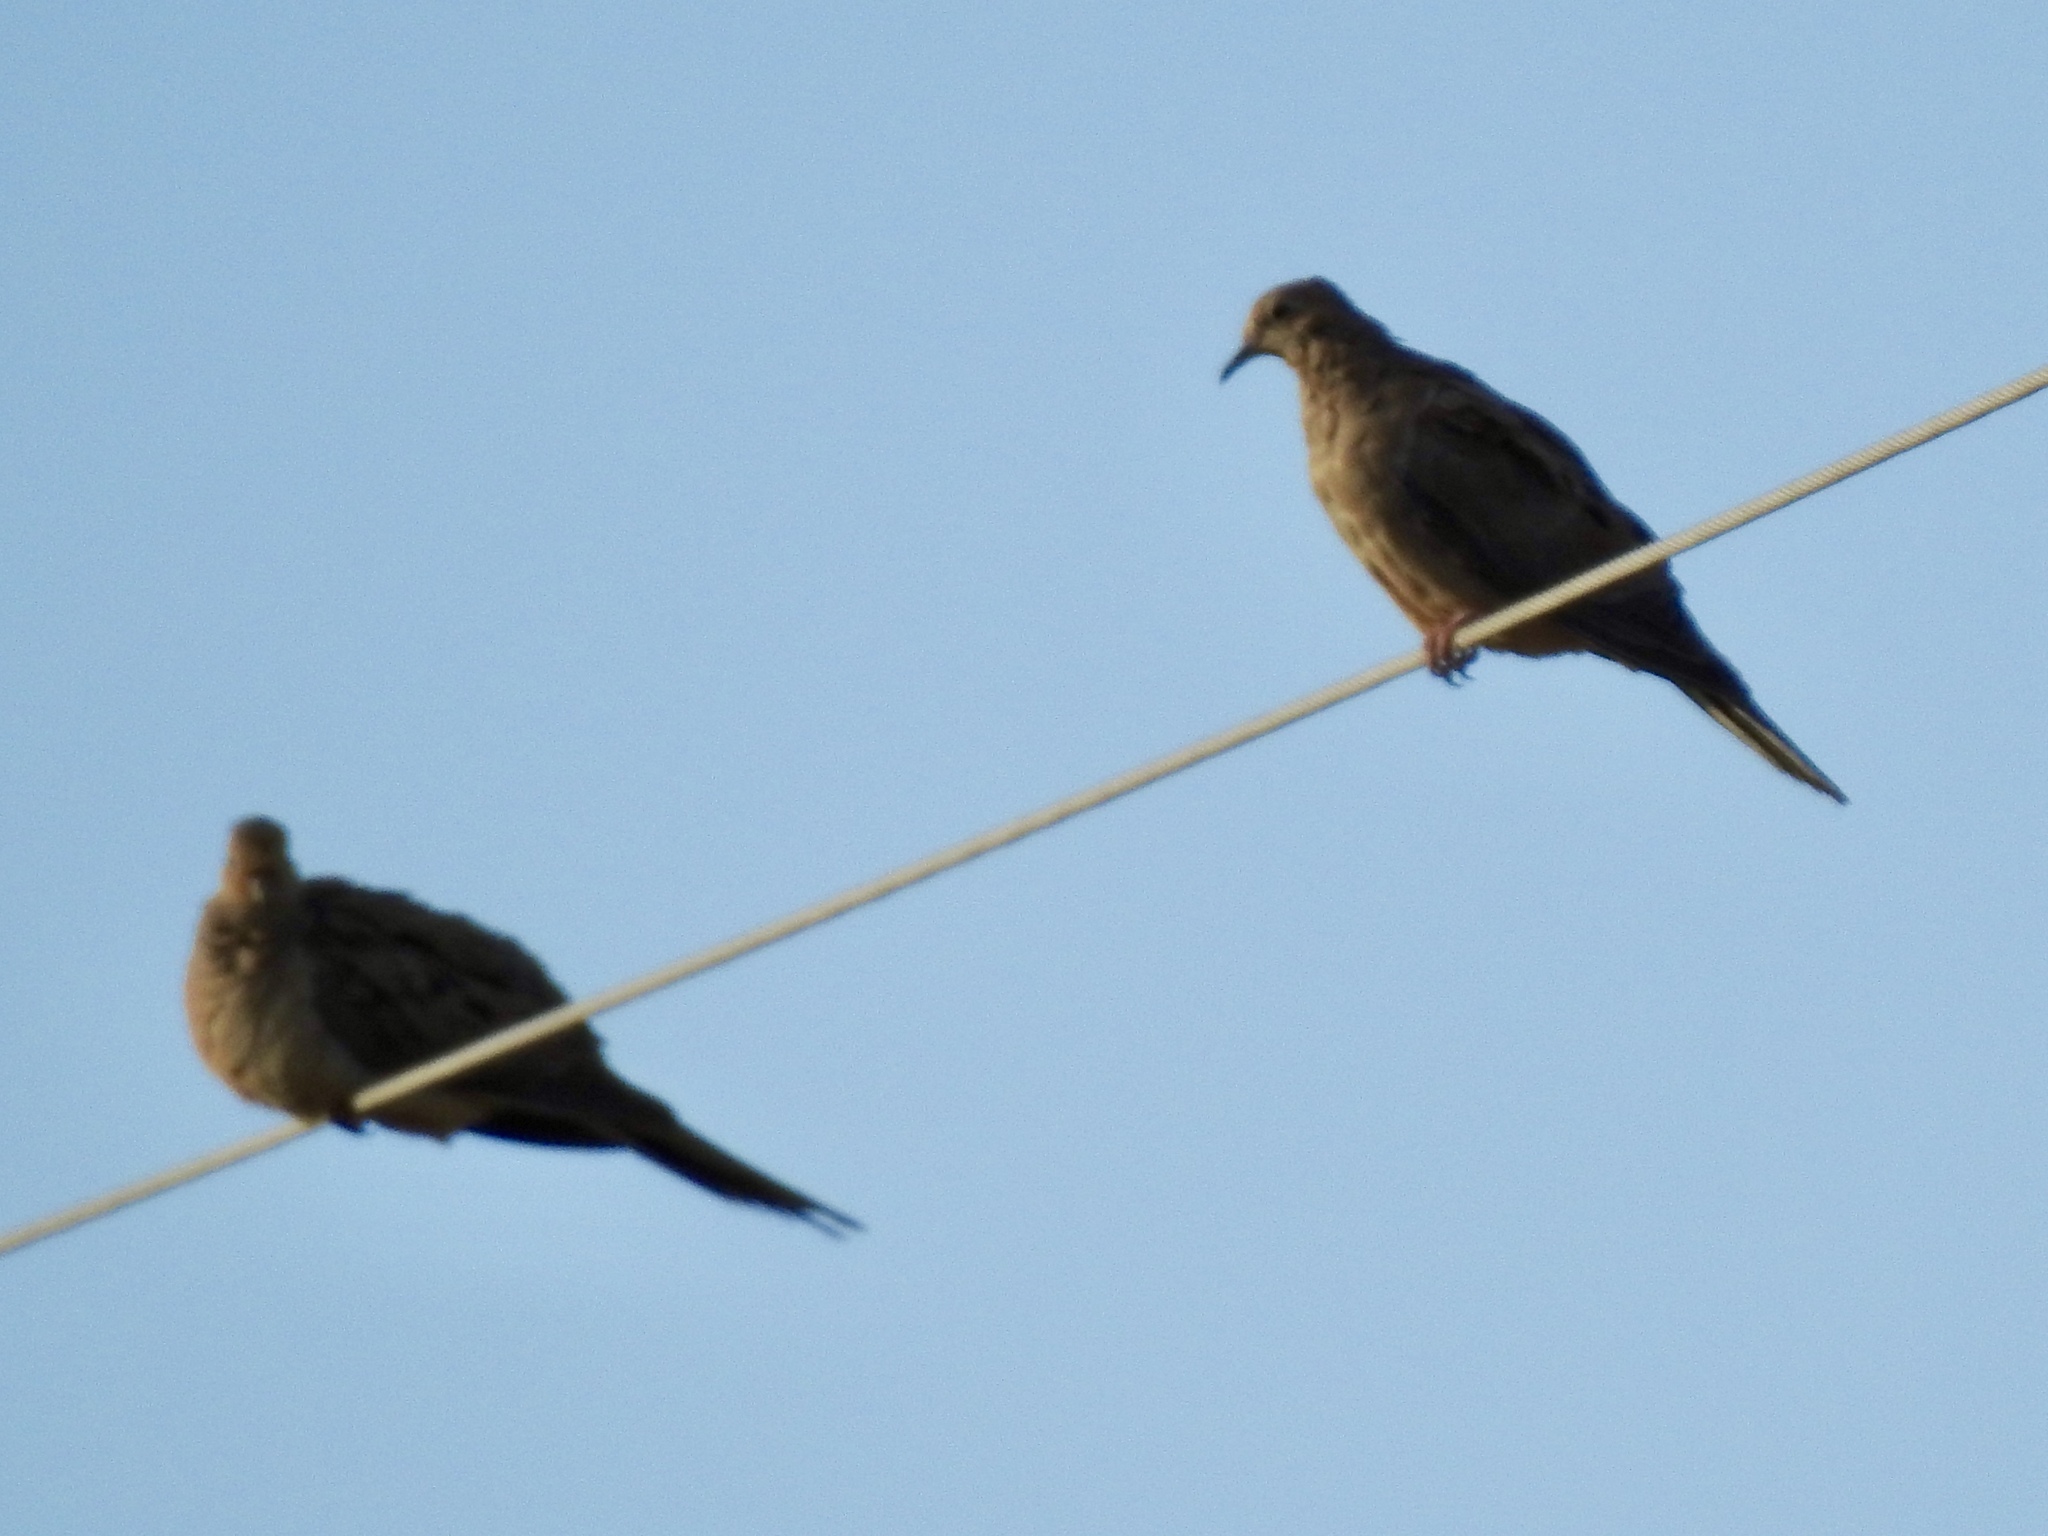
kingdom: Animalia
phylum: Chordata
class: Aves
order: Columbiformes
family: Columbidae
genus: Zenaida
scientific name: Zenaida macroura
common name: Mourning dove
